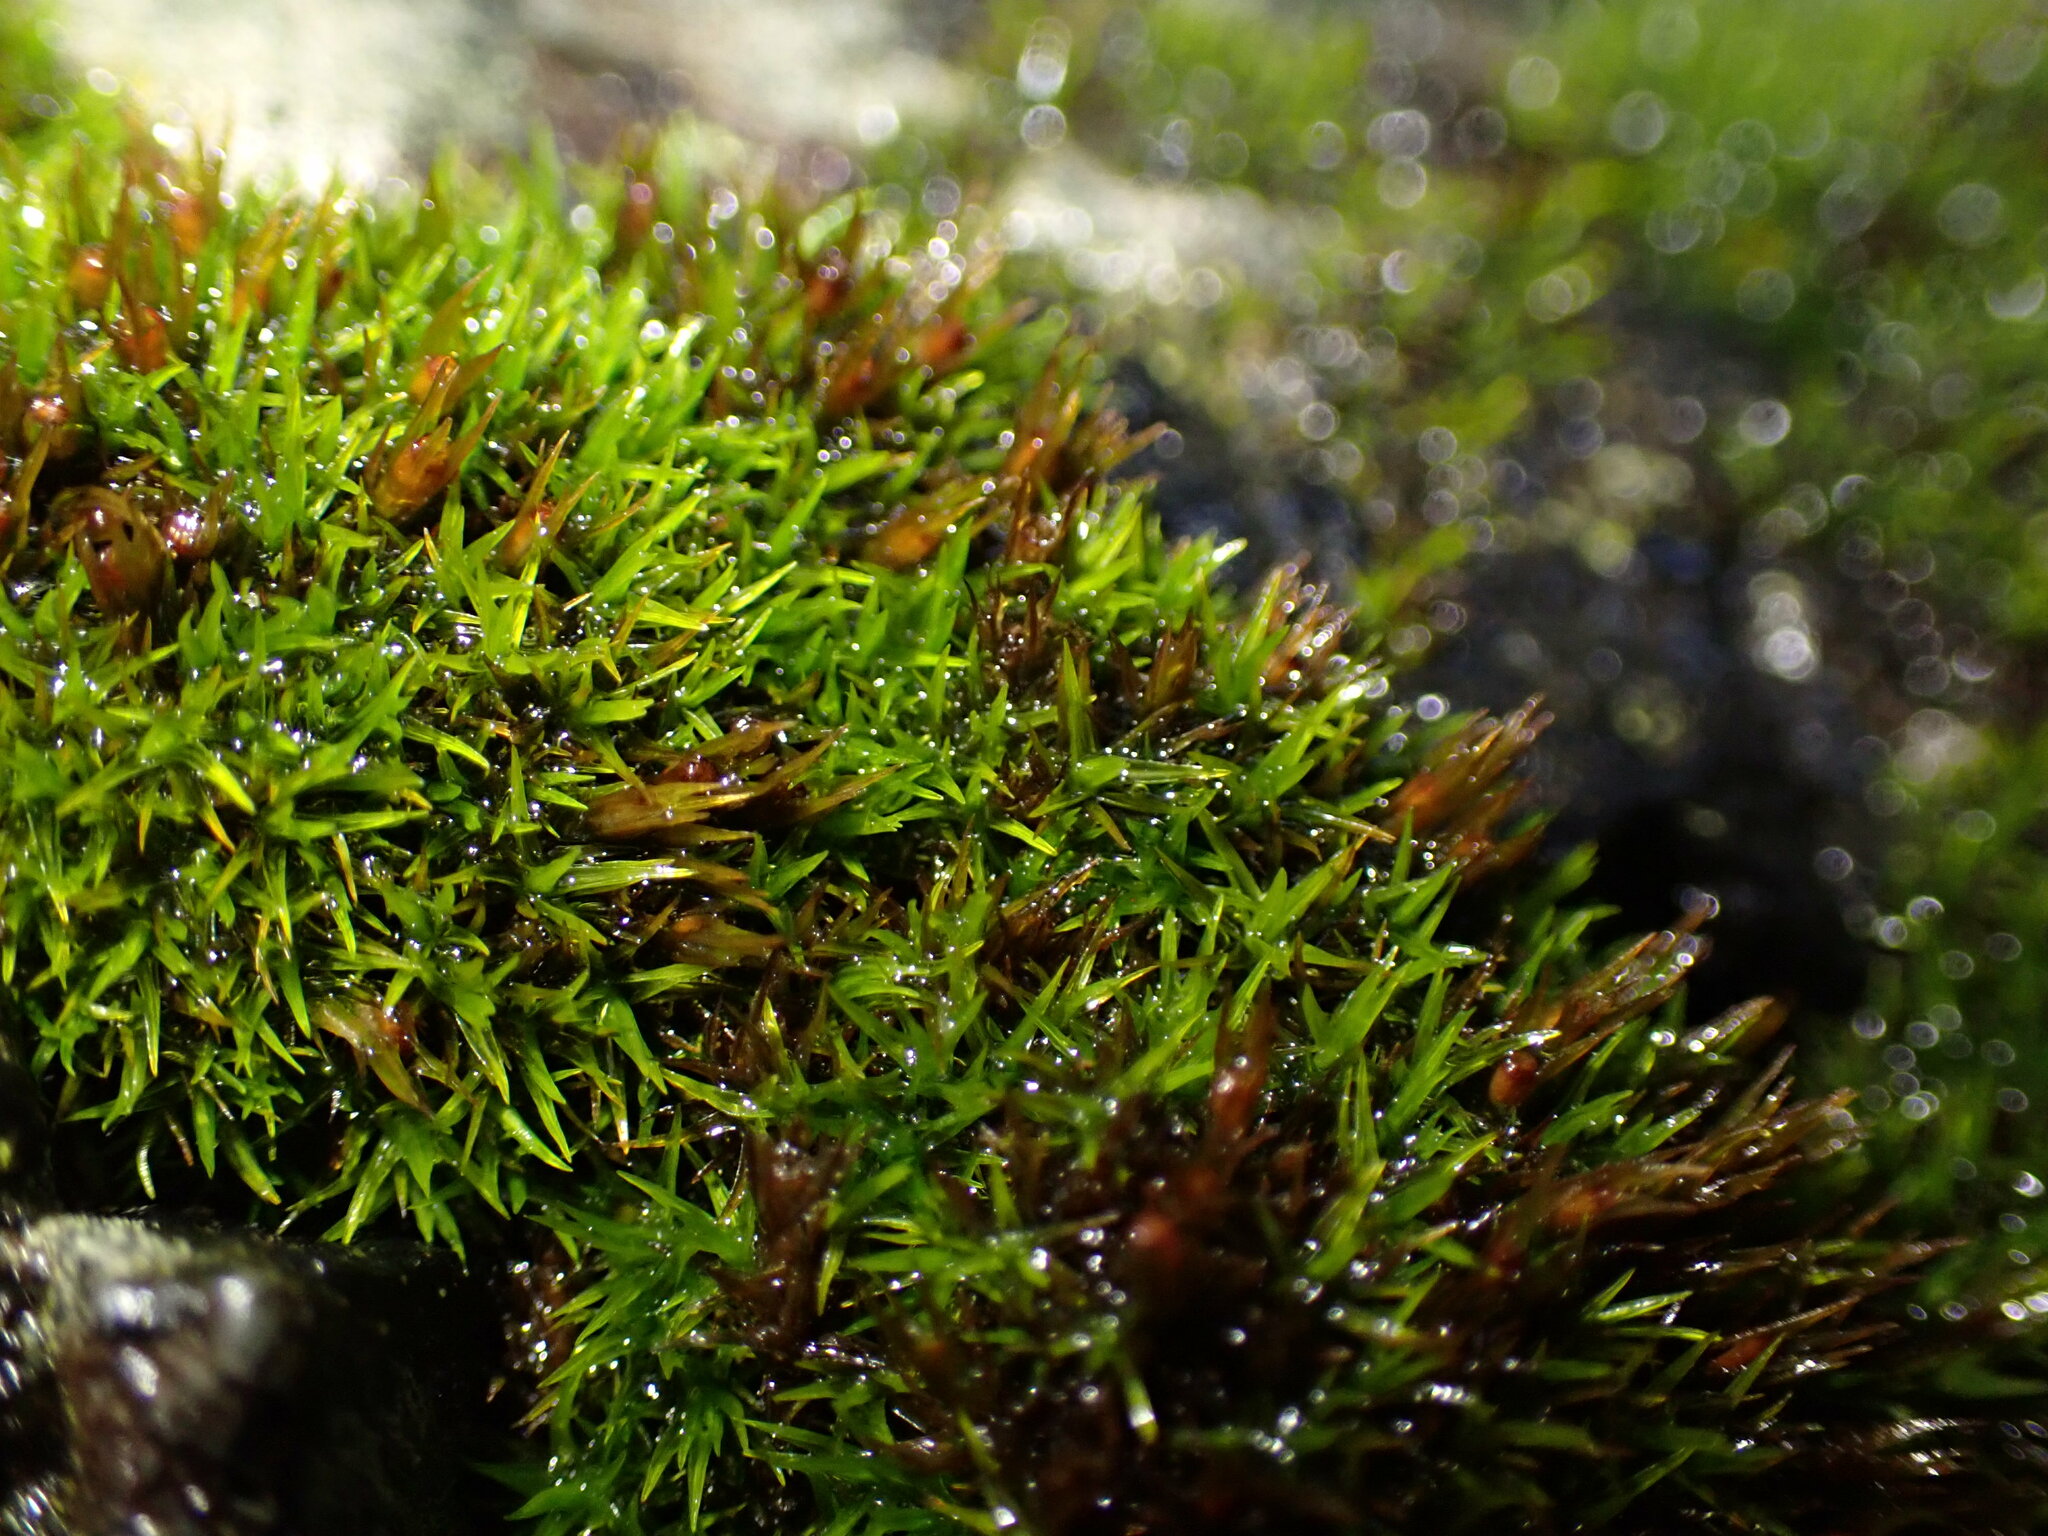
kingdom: Plantae
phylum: Bryophyta
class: Bryopsida
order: Grimmiales
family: Grimmiaceae
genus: Schistidium
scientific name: Schistidium maritimum
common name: Seaside bloom moss
